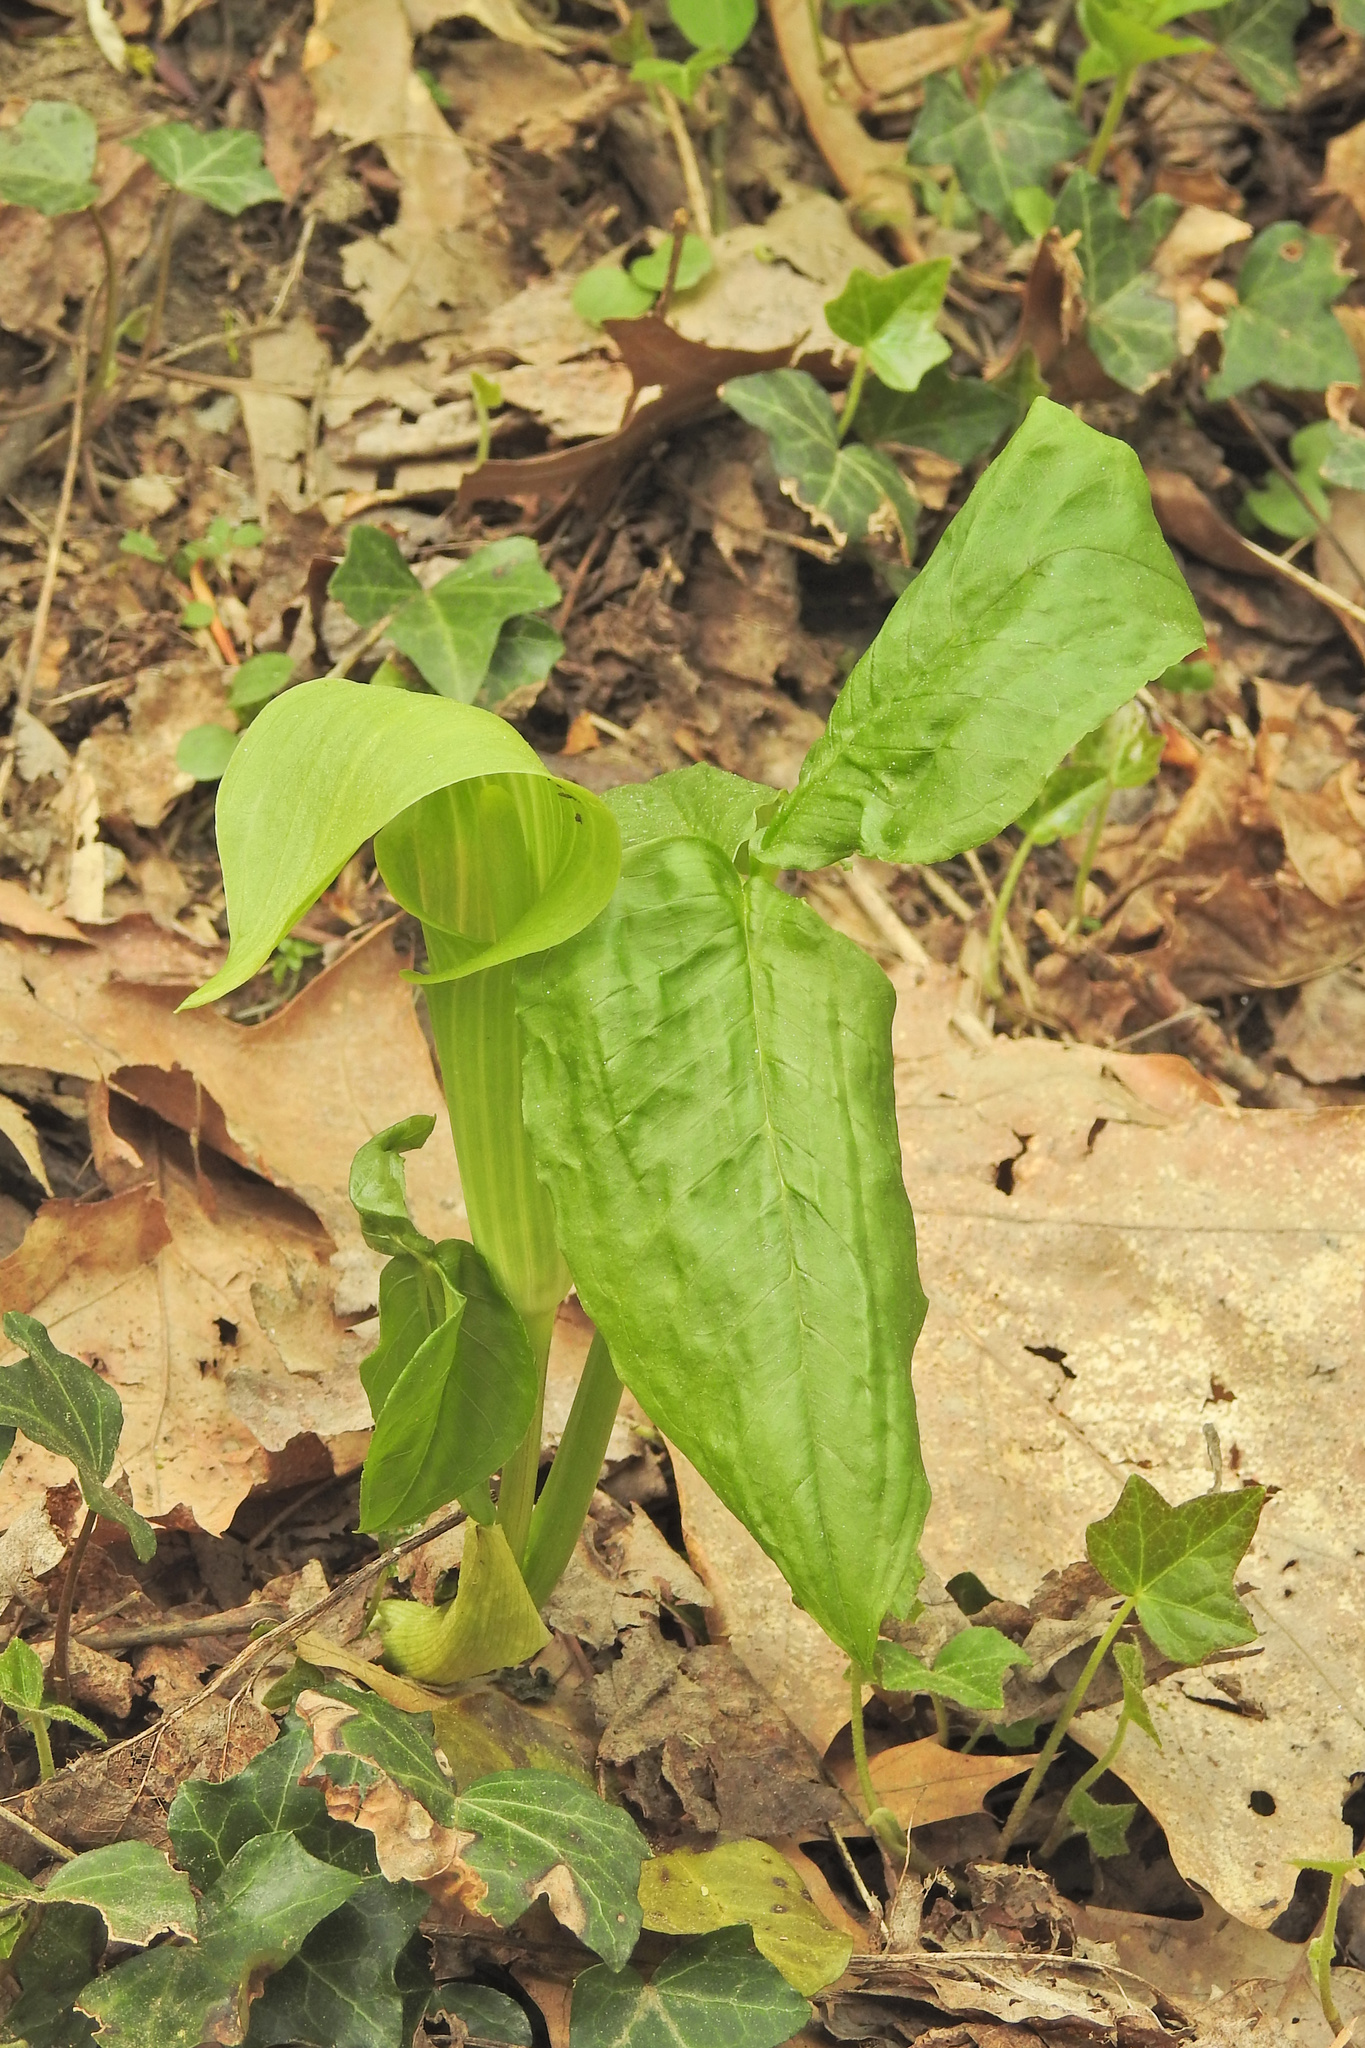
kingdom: Plantae
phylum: Tracheophyta
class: Liliopsida
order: Alismatales
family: Araceae
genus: Arisaema
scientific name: Arisaema triphyllum
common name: Jack-in-the-pulpit
